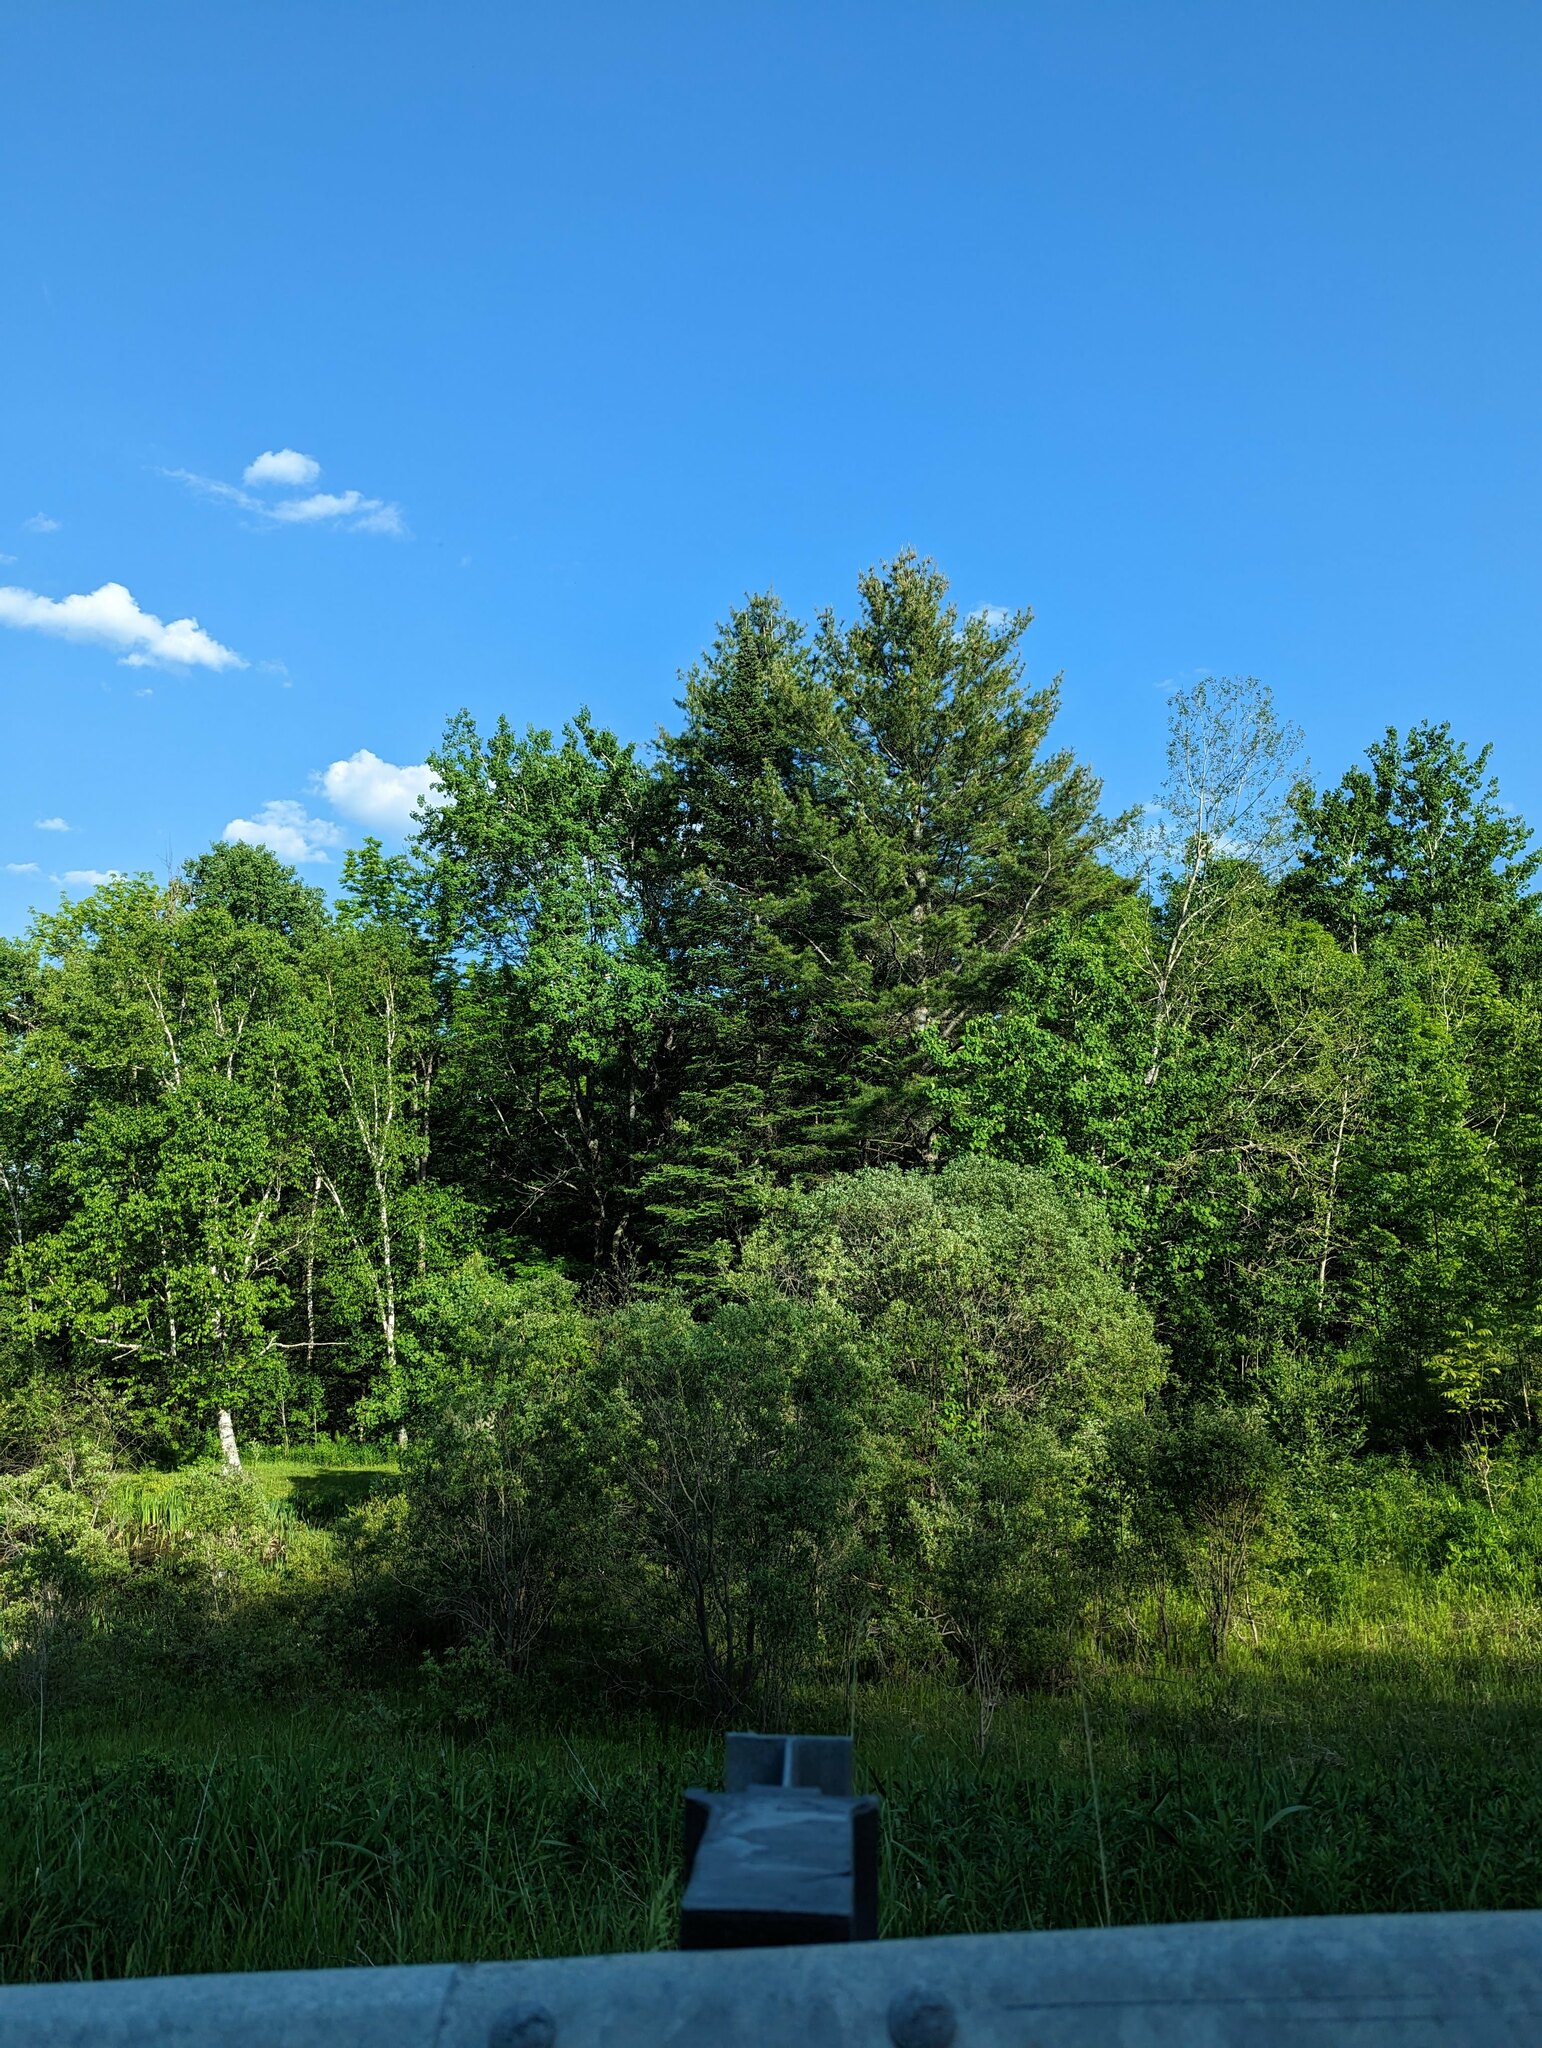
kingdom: Plantae
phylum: Tracheophyta
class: Pinopsida
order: Pinales
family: Pinaceae
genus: Pinus
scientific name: Pinus strobus
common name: Weymouth pine
